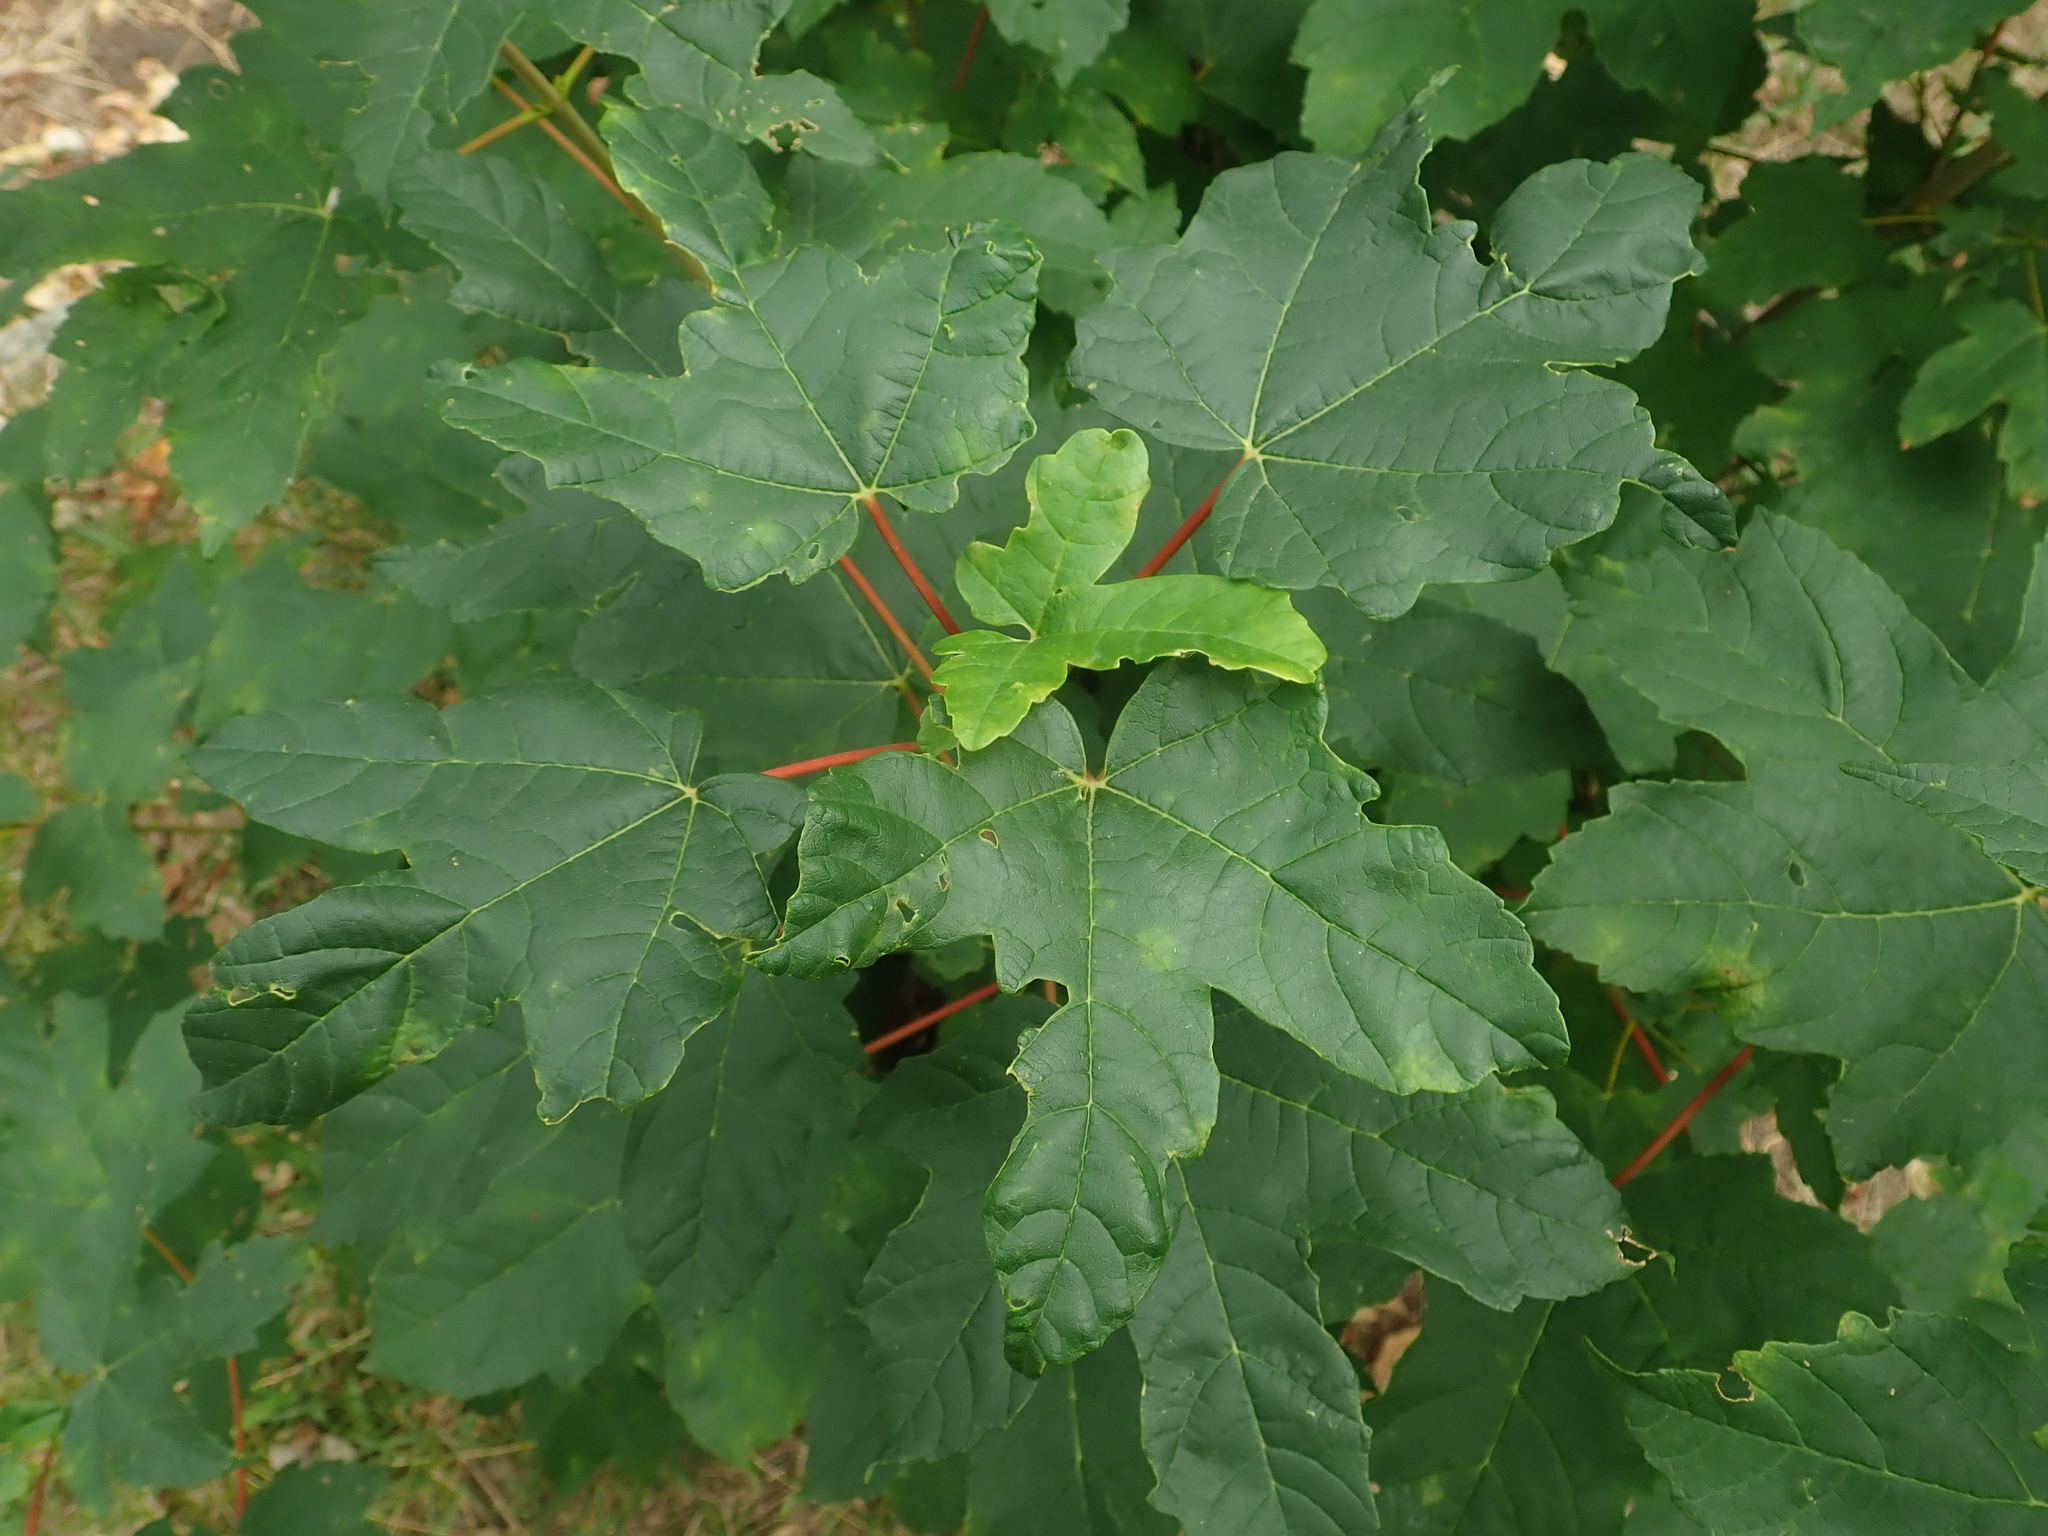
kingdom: Plantae
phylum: Tracheophyta
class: Magnoliopsida
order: Sapindales
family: Sapindaceae
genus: Acer
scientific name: Acer pseudoplatanus
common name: Sycamore
